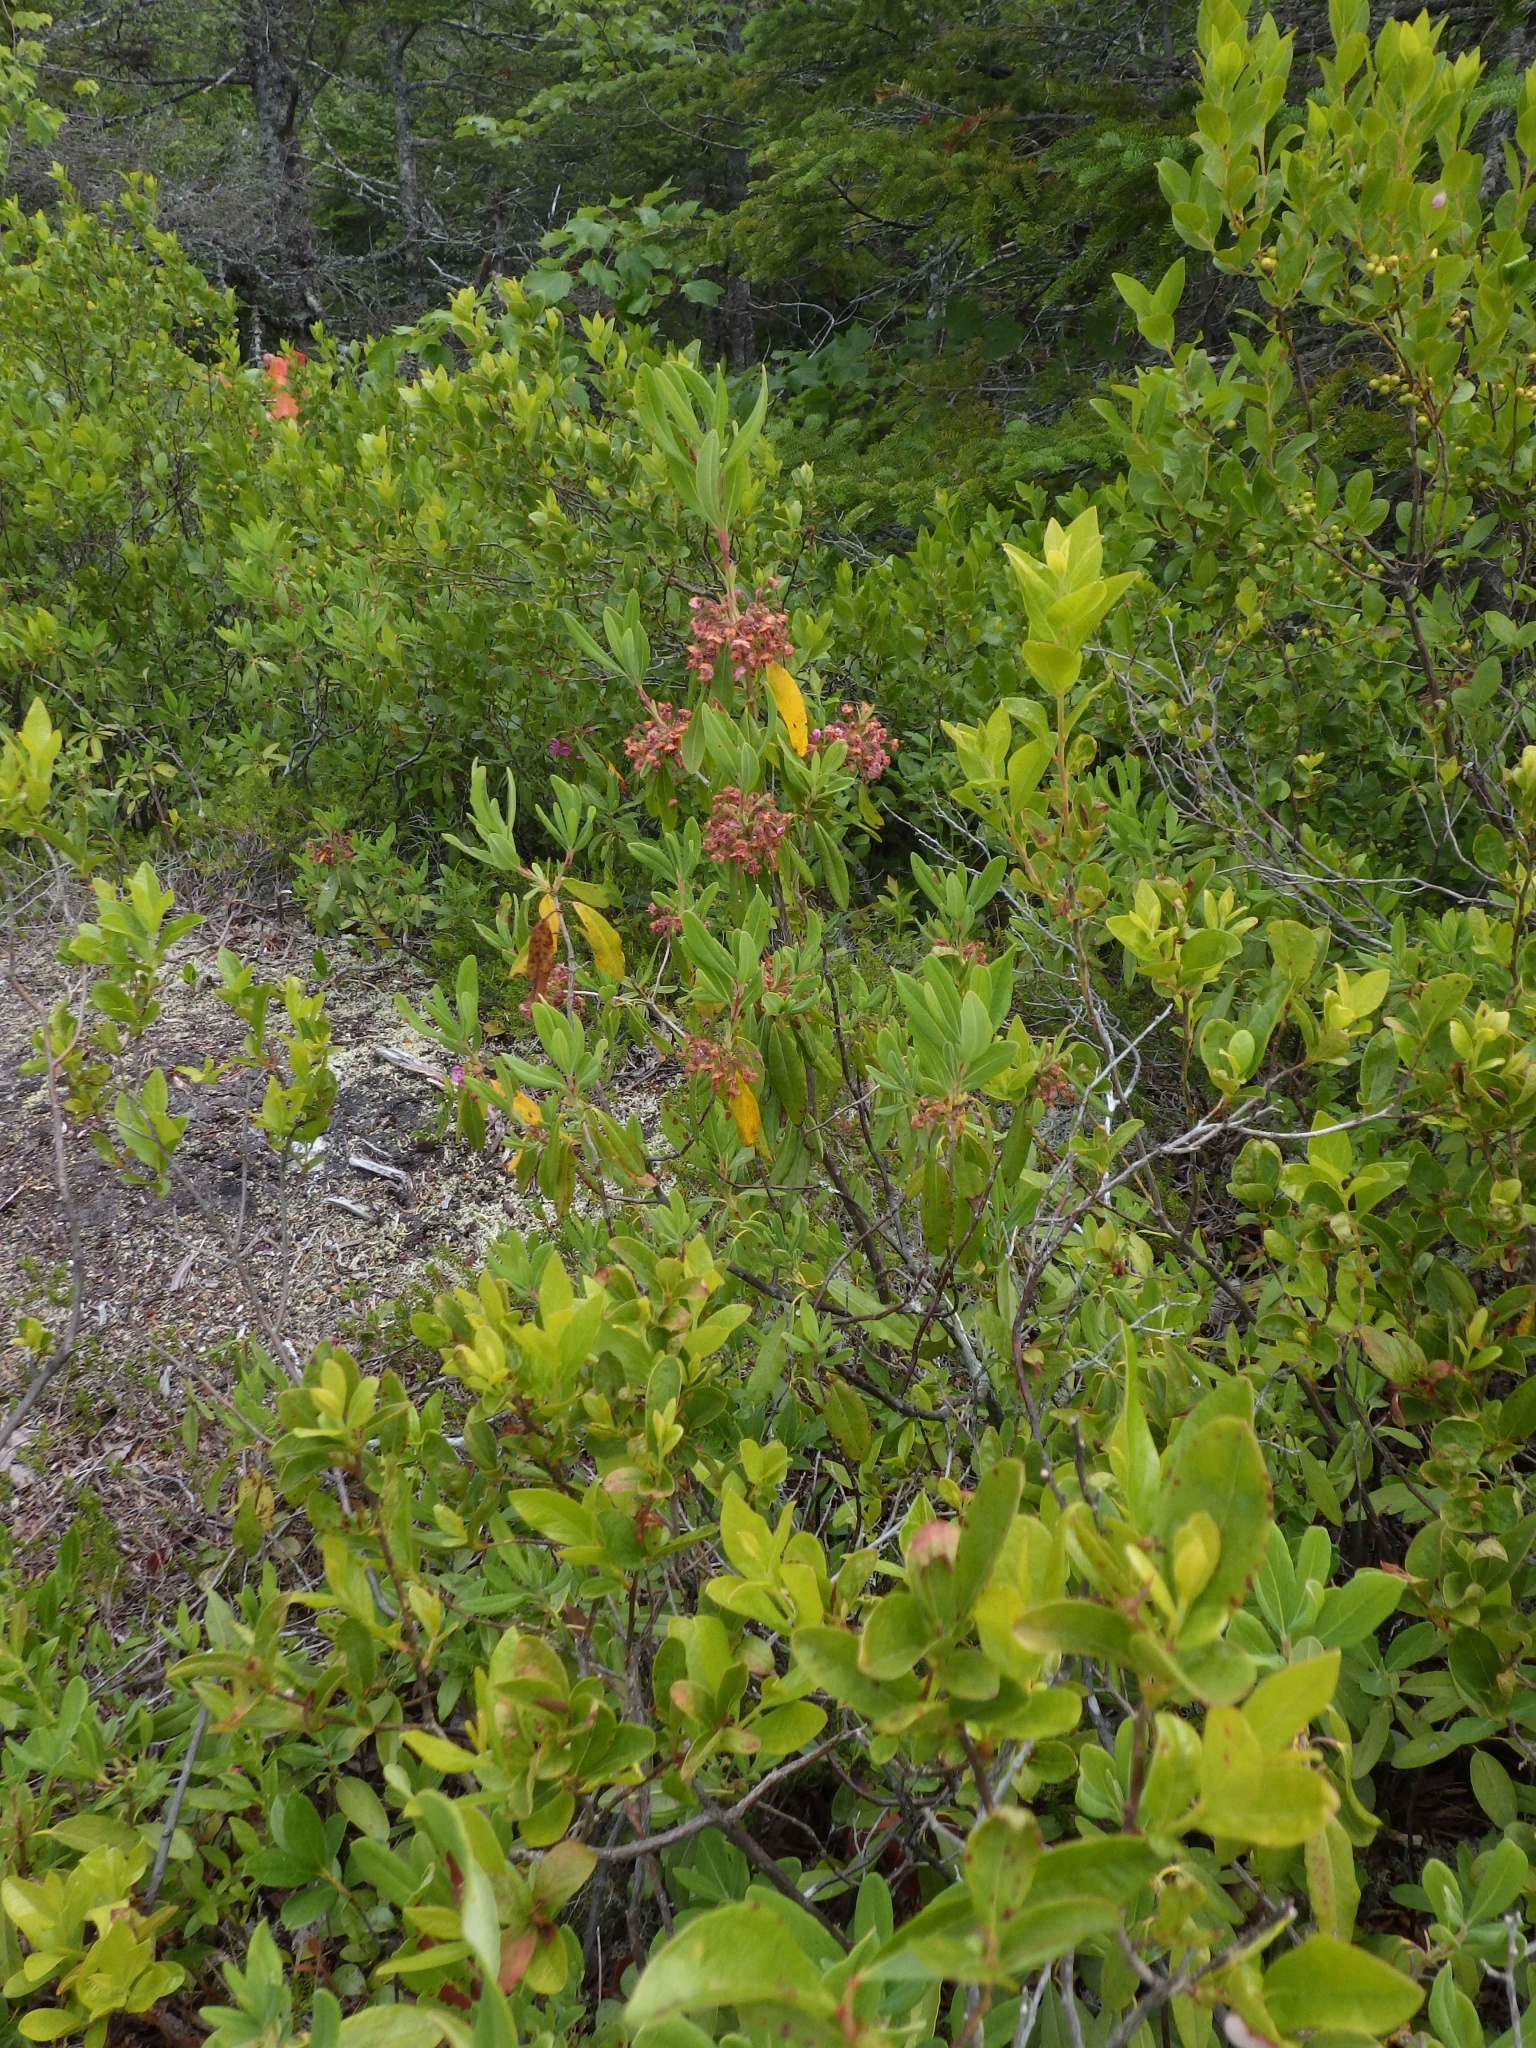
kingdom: Plantae
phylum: Tracheophyta
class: Magnoliopsida
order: Ericales
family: Ericaceae
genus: Kalmia
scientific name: Kalmia angustifolia
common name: Sheep-laurel
